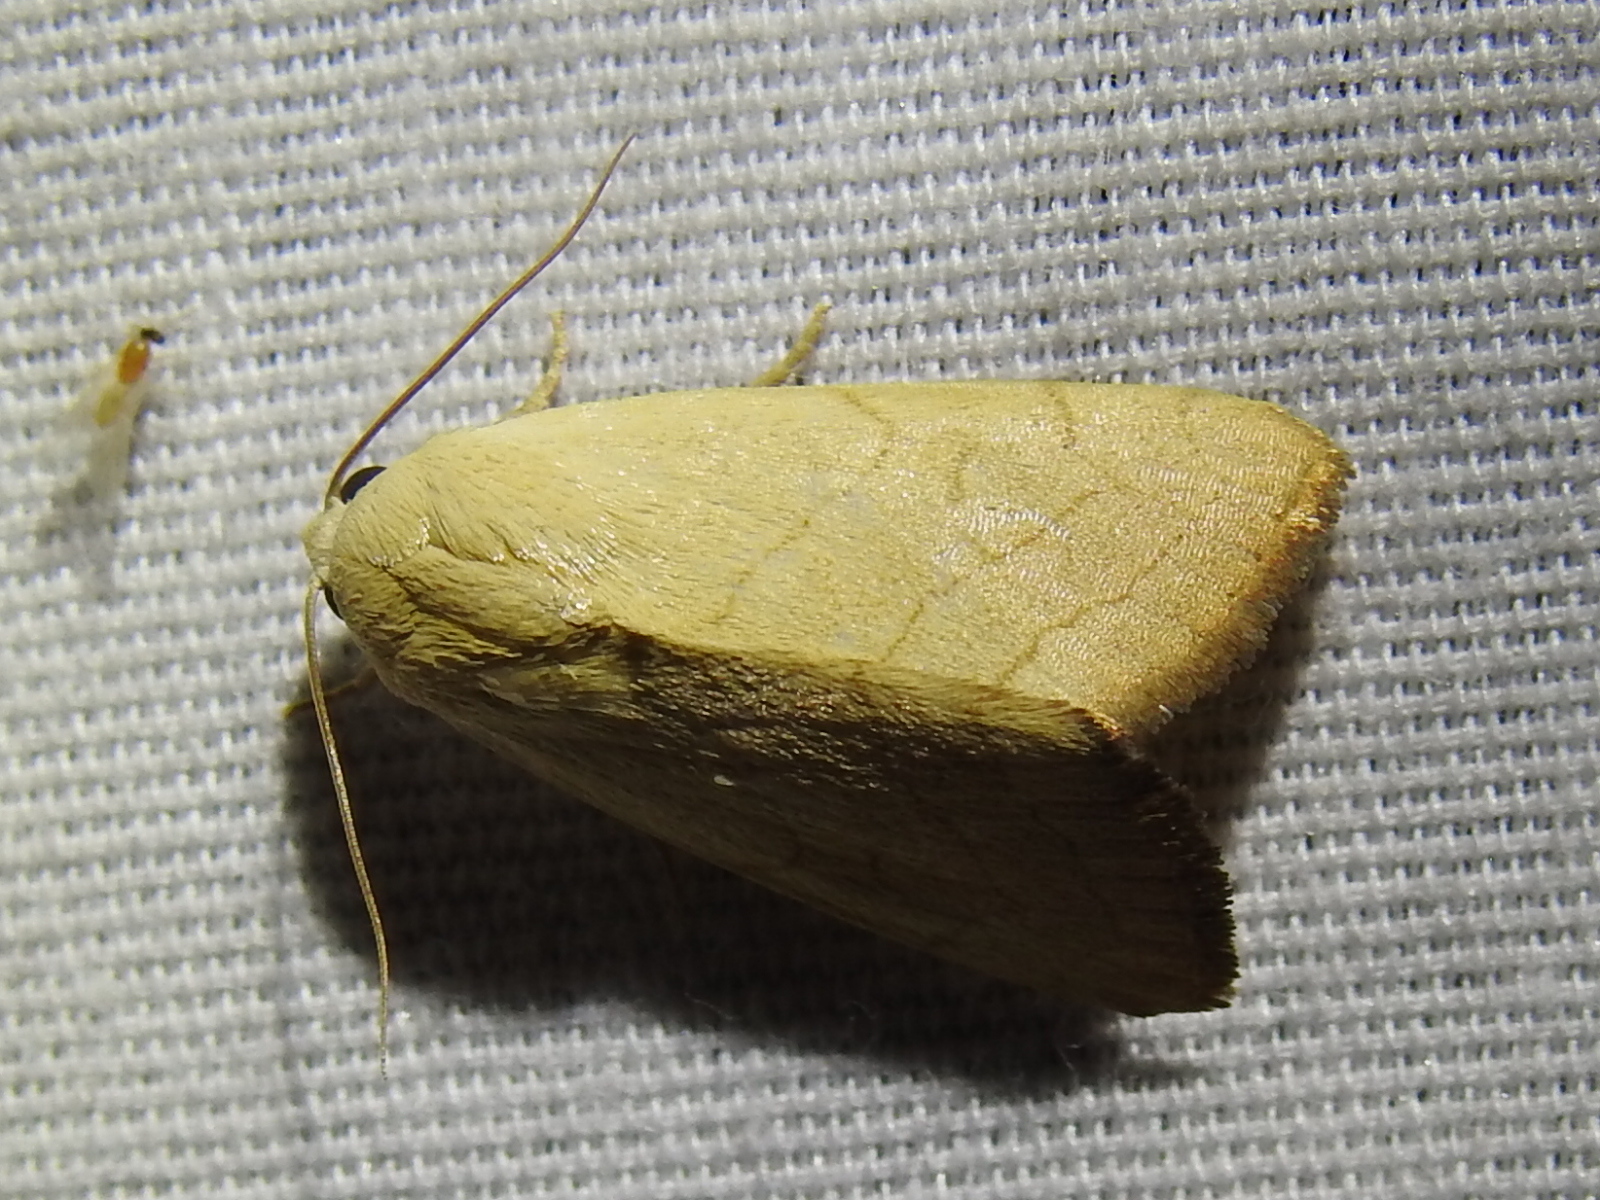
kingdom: Animalia
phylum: Arthropoda
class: Insecta
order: Lepidoptera
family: Noctuidae
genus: Bagisara
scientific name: Bagisara buxea
